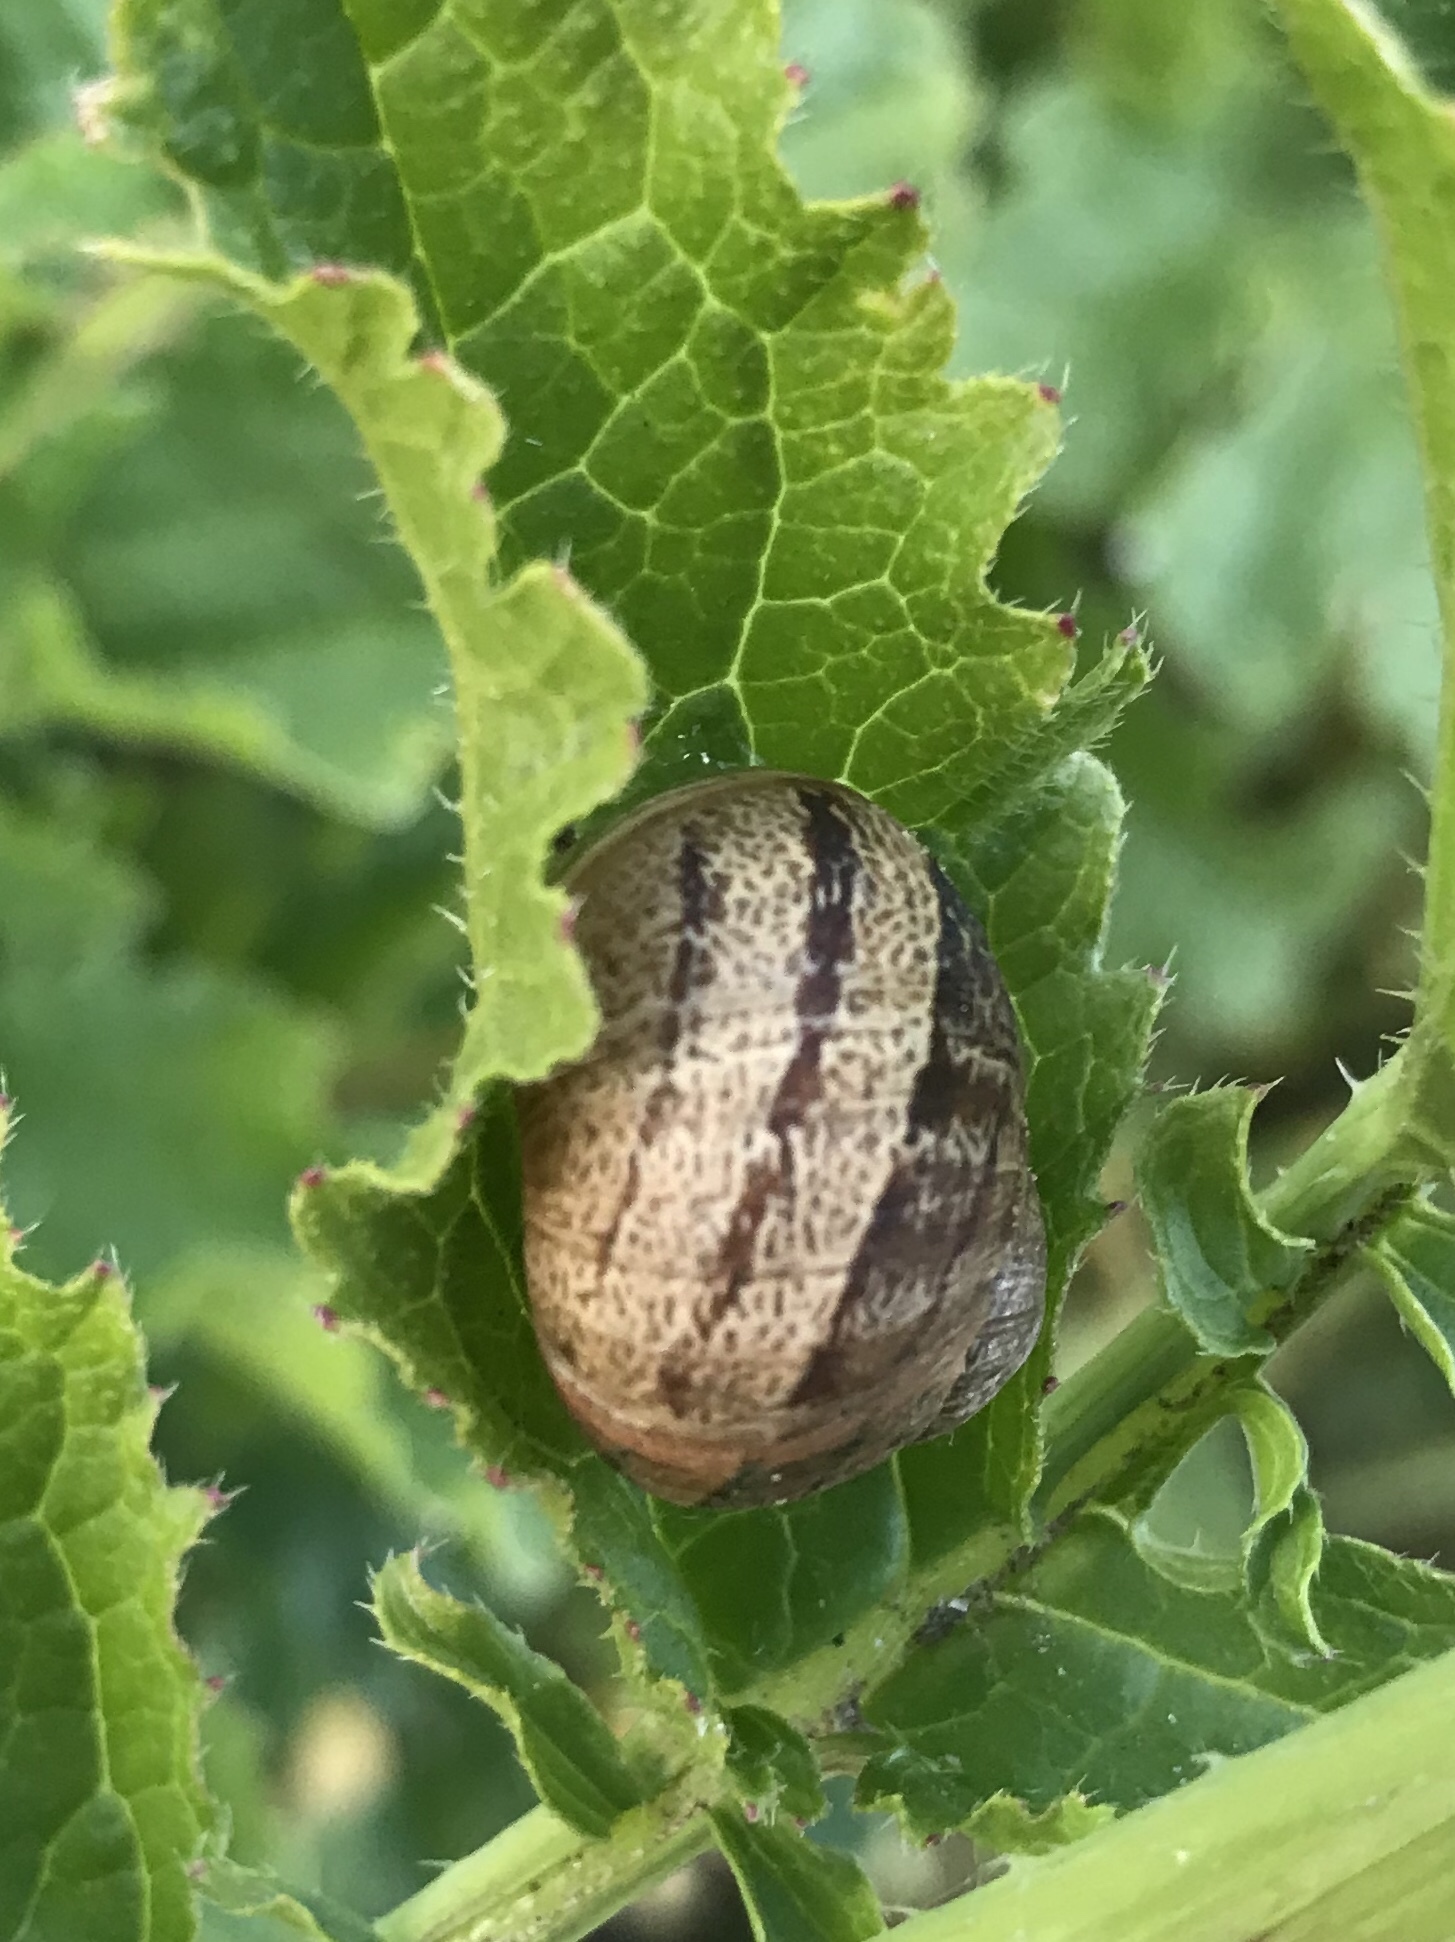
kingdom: Animalia
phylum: Mollusca
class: Gastropoda
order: Stylommatophora
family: Helicidae
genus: Cornu
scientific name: Cornu aspersum
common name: Brown garden snail
